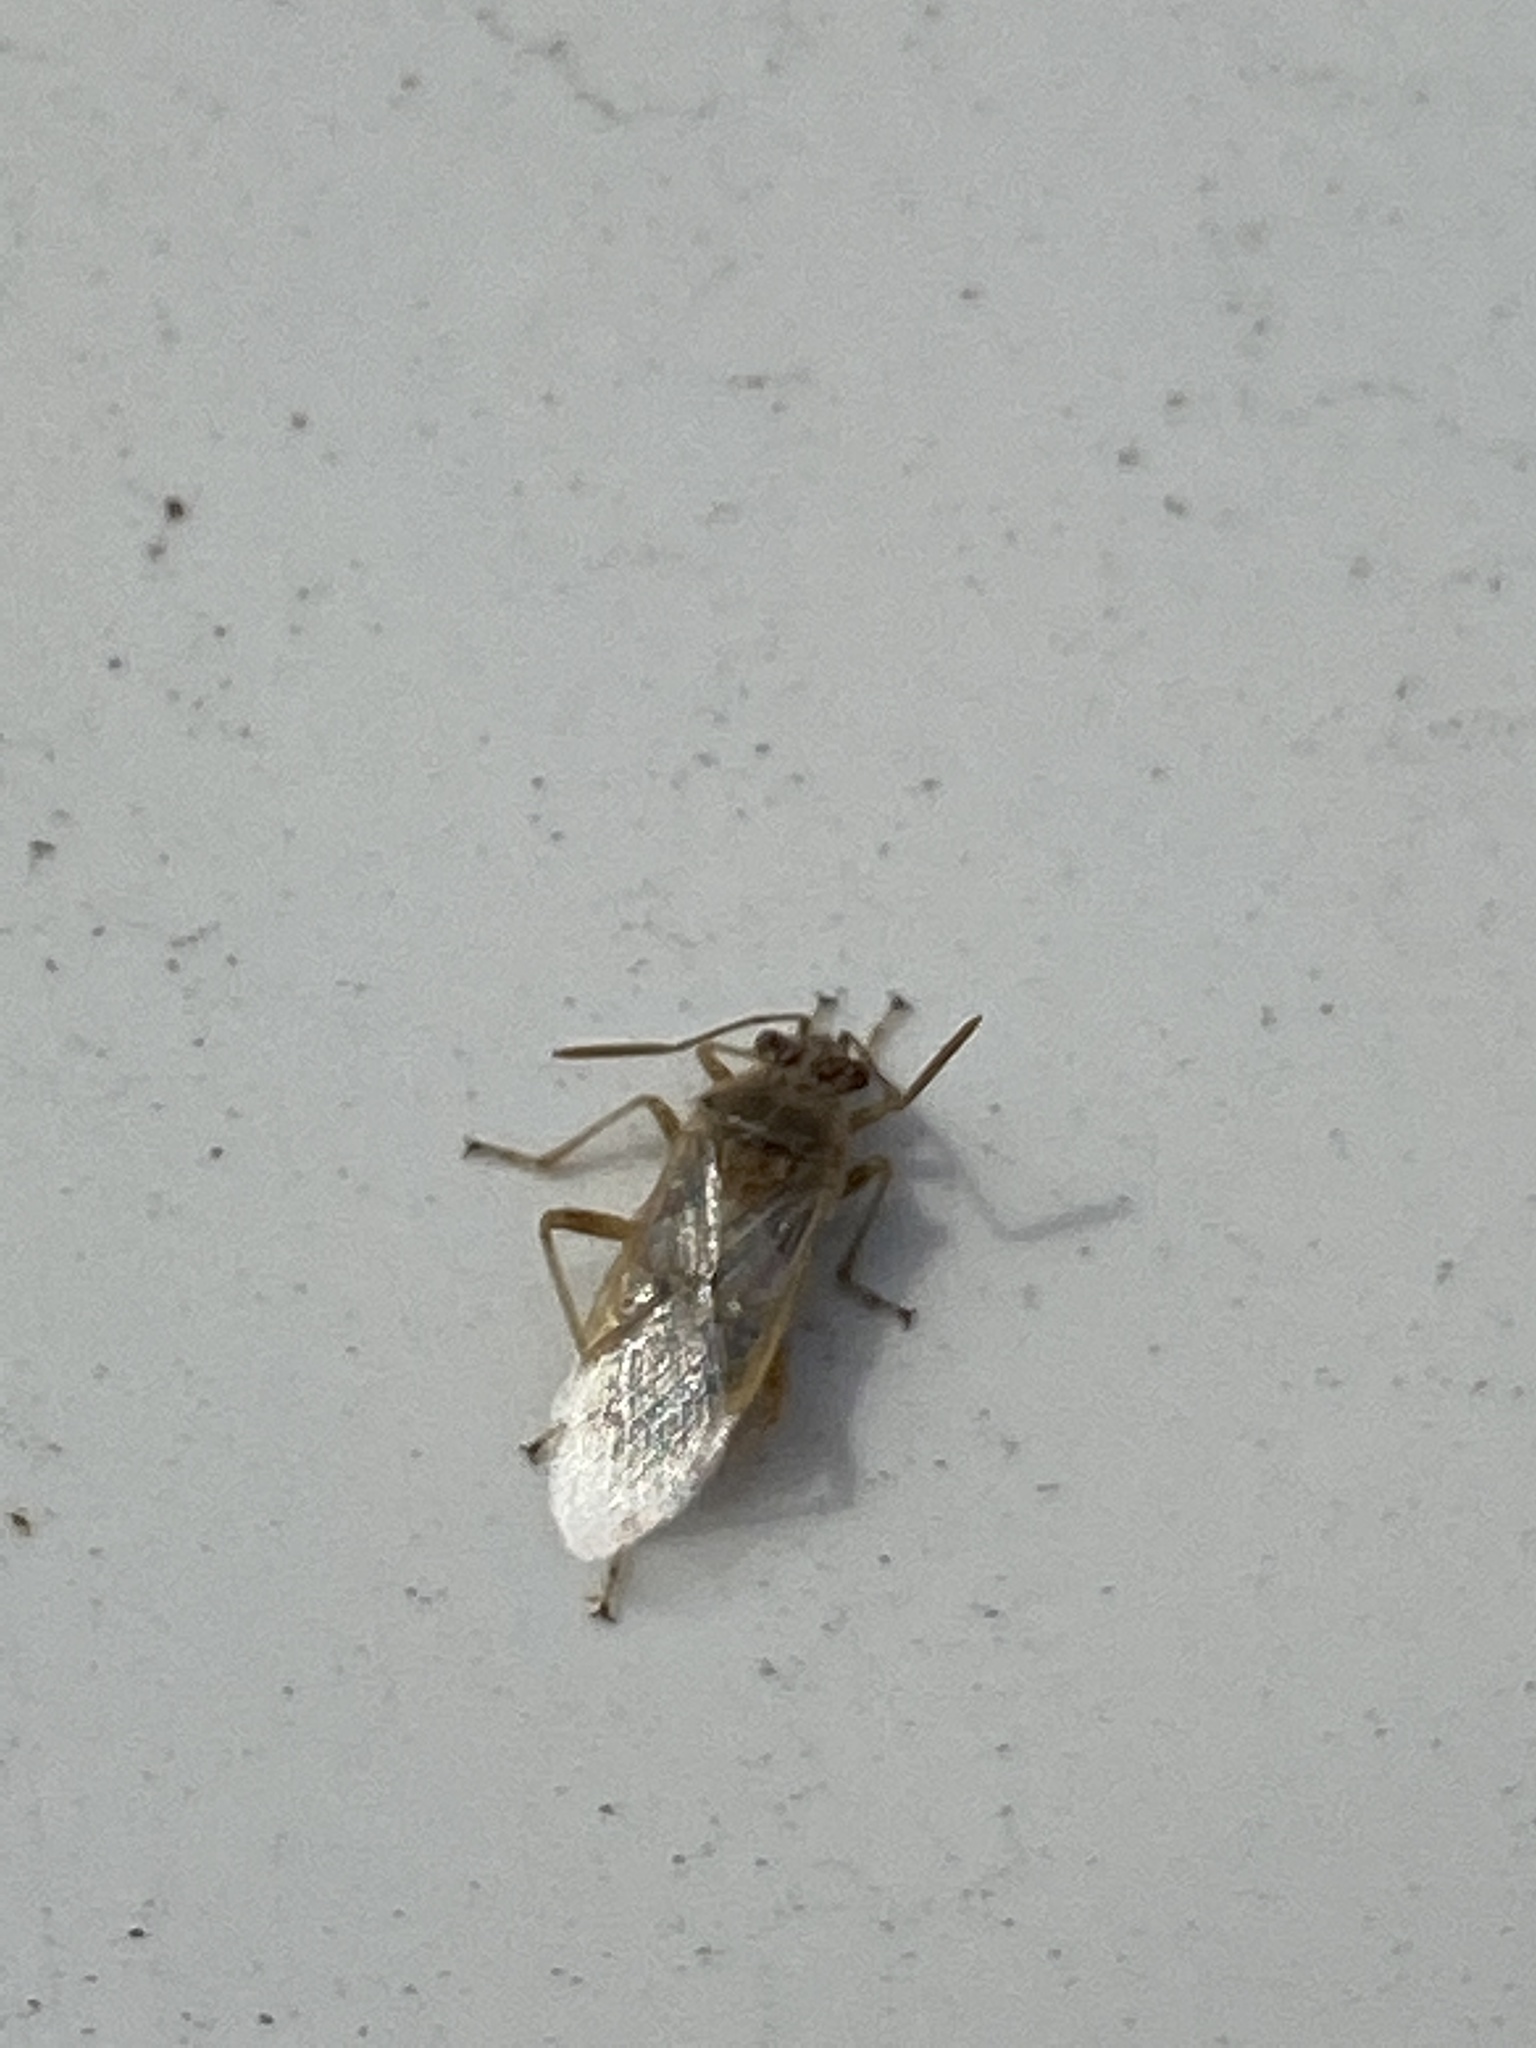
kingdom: Animalia
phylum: Arthropoda
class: Insecta
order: Hemiptera
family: Rhopalidae
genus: Liorhyssus
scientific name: Liorhyssus hyalinus
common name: Scentless plant bug
